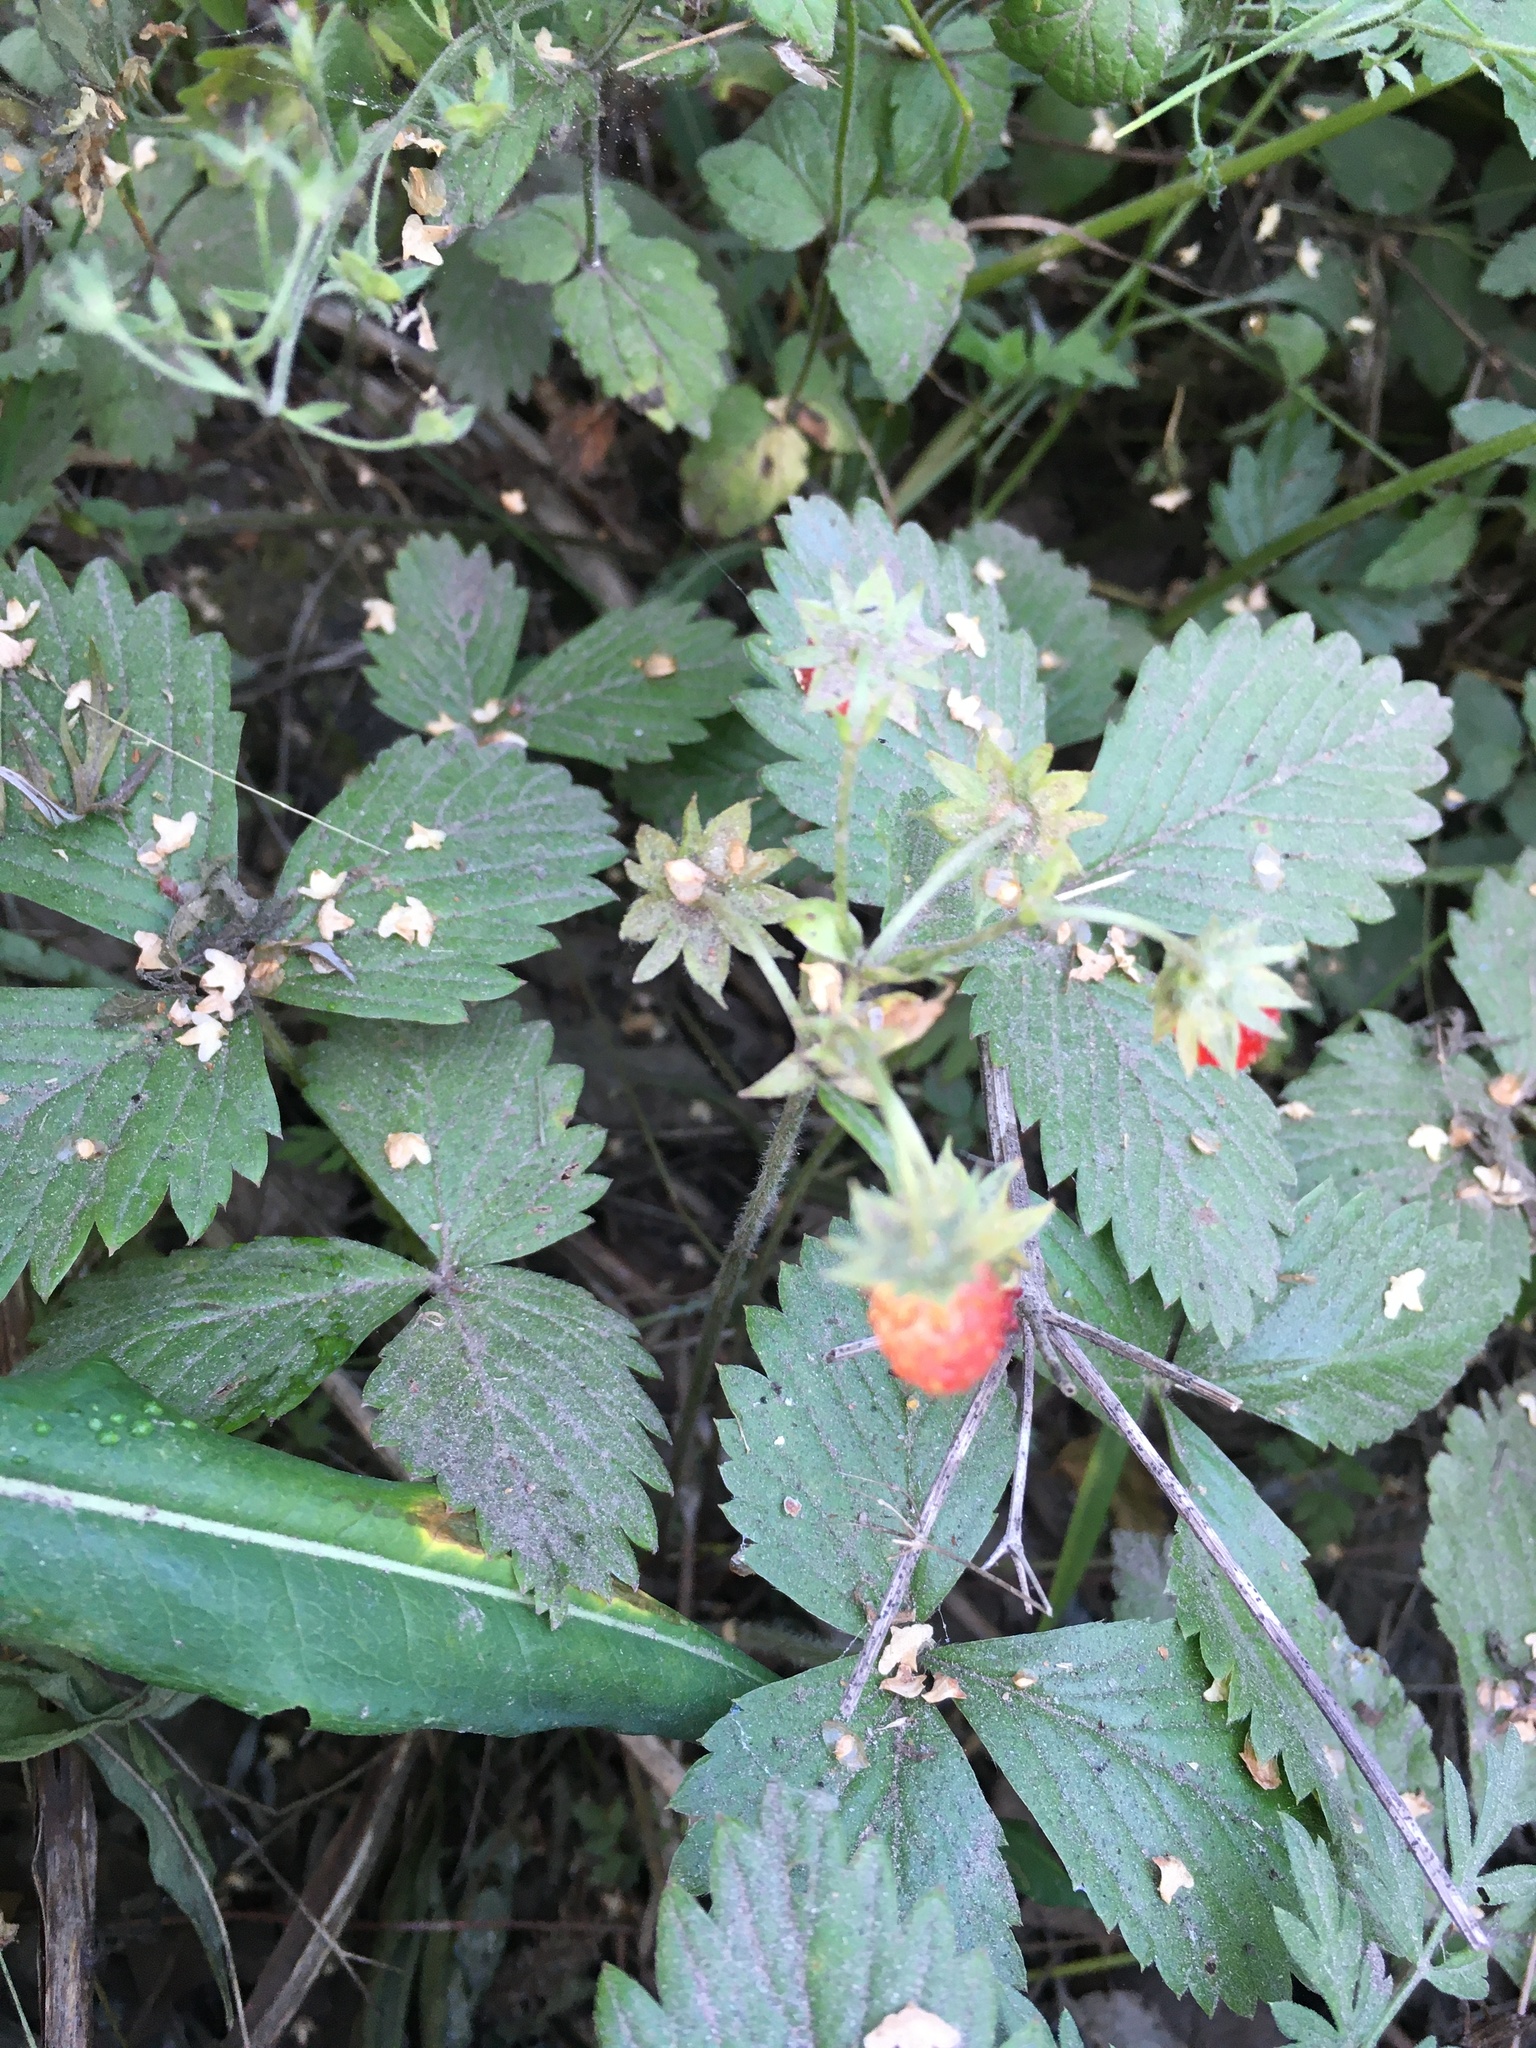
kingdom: Plantae
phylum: Tracheophyta
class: Magnoliopsida
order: Rosales
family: Rosaceae
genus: Fragaria
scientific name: Fragaria vesca
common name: Wild strawberry
